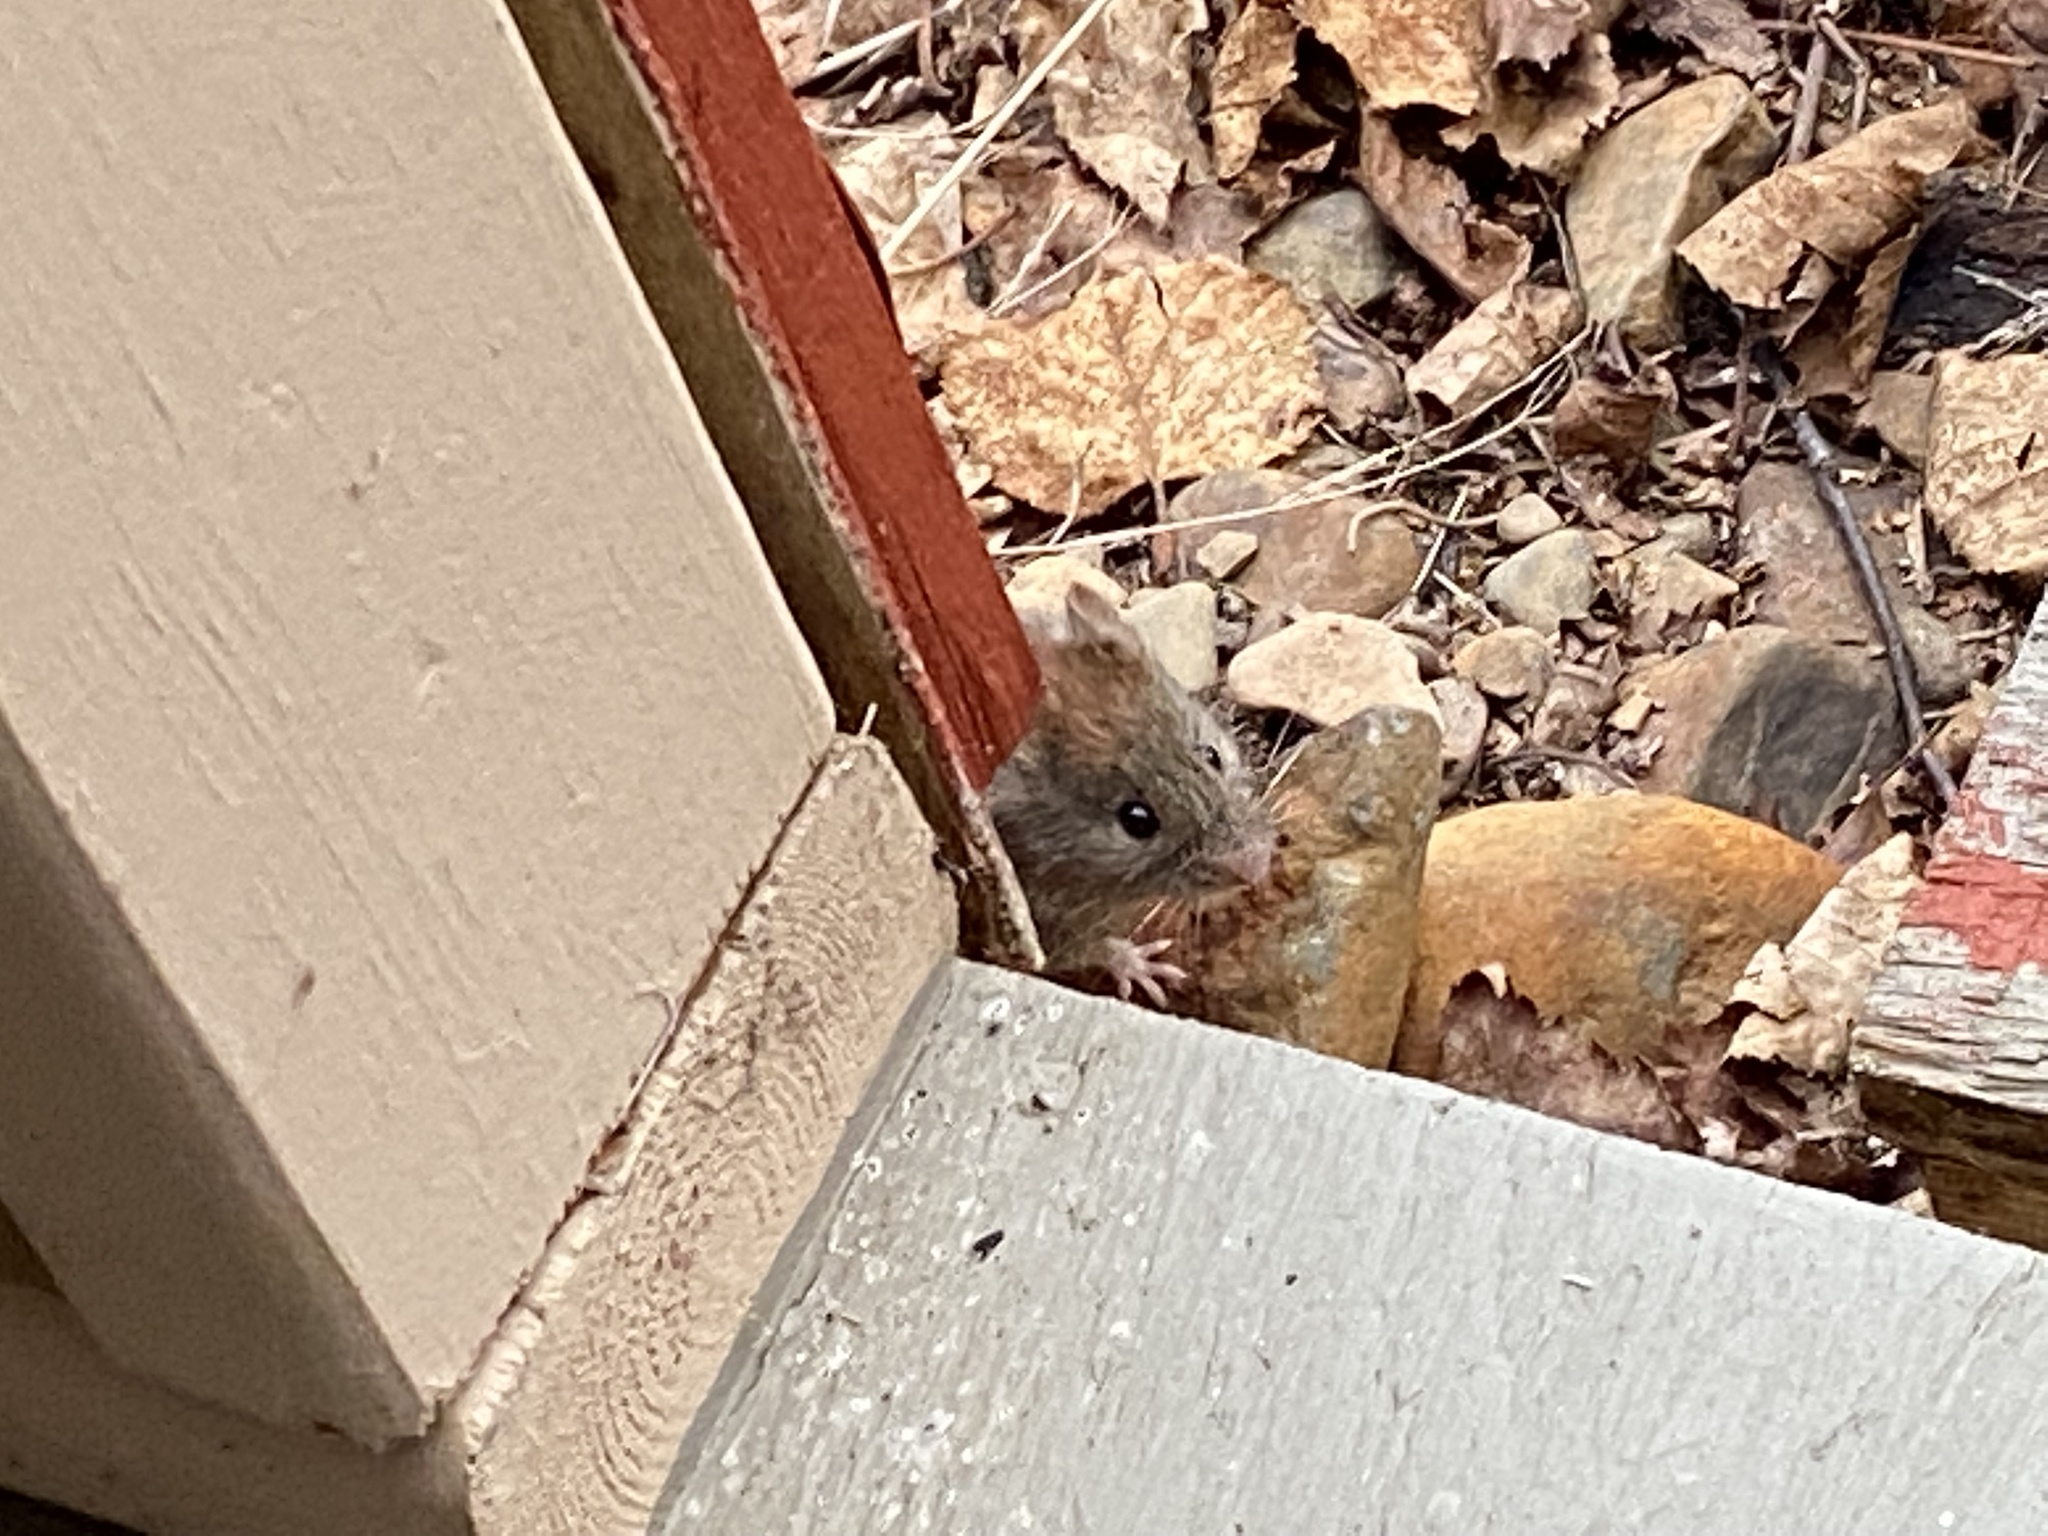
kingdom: Animalia
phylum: Chordata
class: Mammalia
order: Rodentia
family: Cricetidae
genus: Myodes
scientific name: Myodes gapperi
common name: Southern red-backed vole
